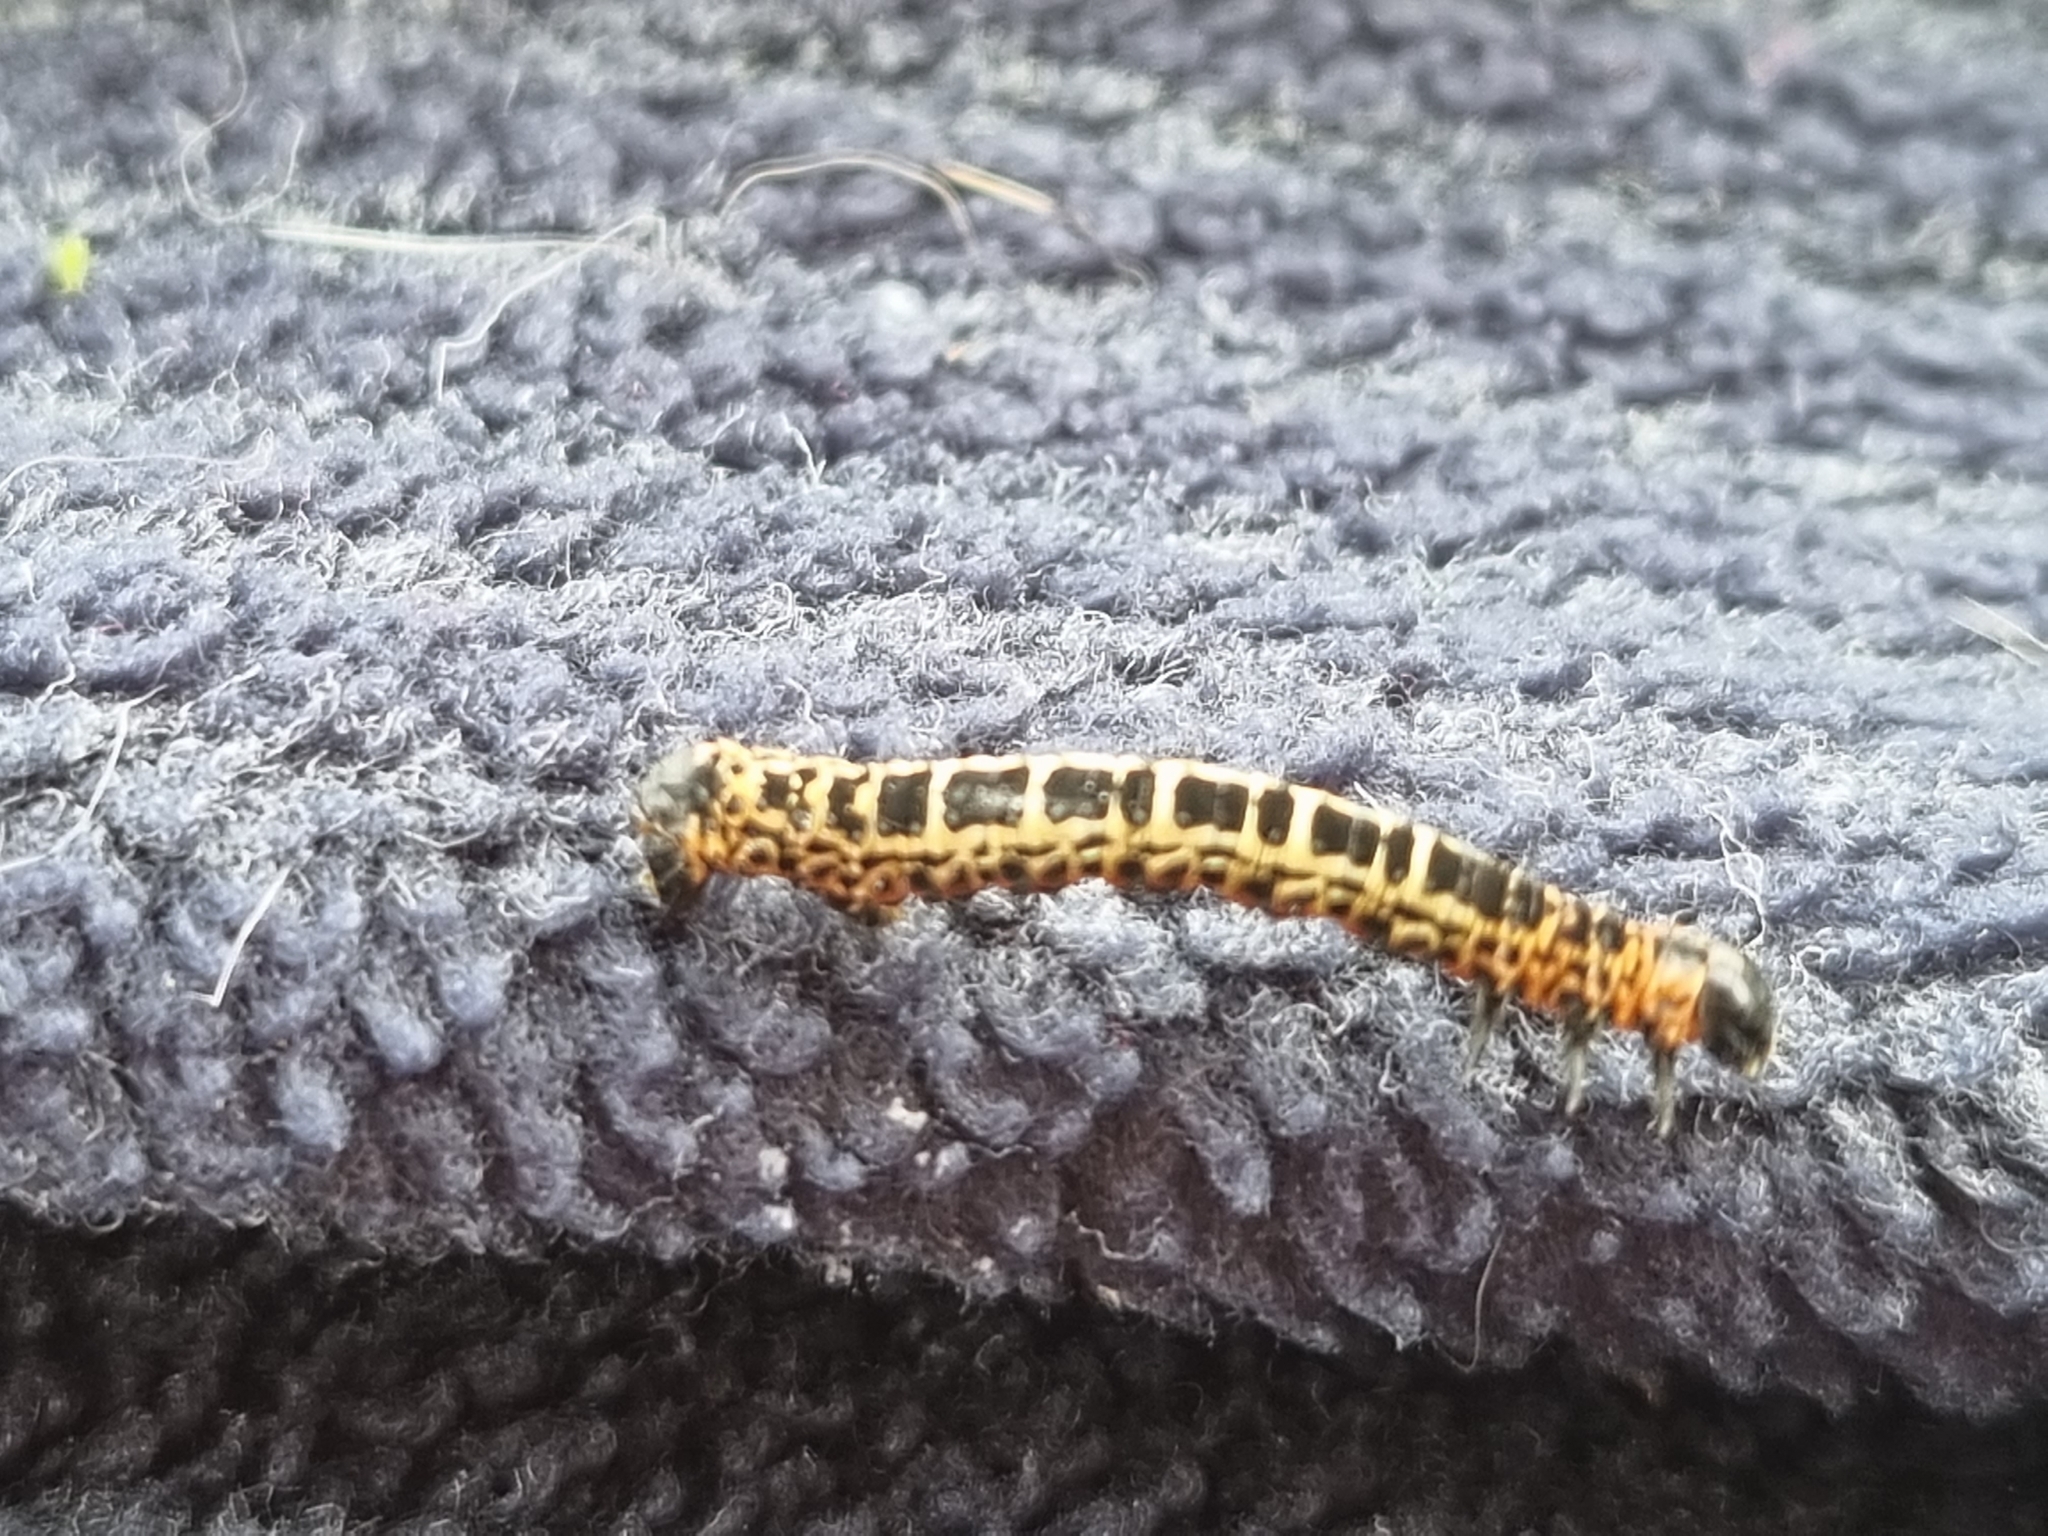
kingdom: Animalia
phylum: Arthropoda
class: Insecta
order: Lepidoptera
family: Geometridae
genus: Abraxas
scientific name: Abraxas grossulariata
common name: Magpie
